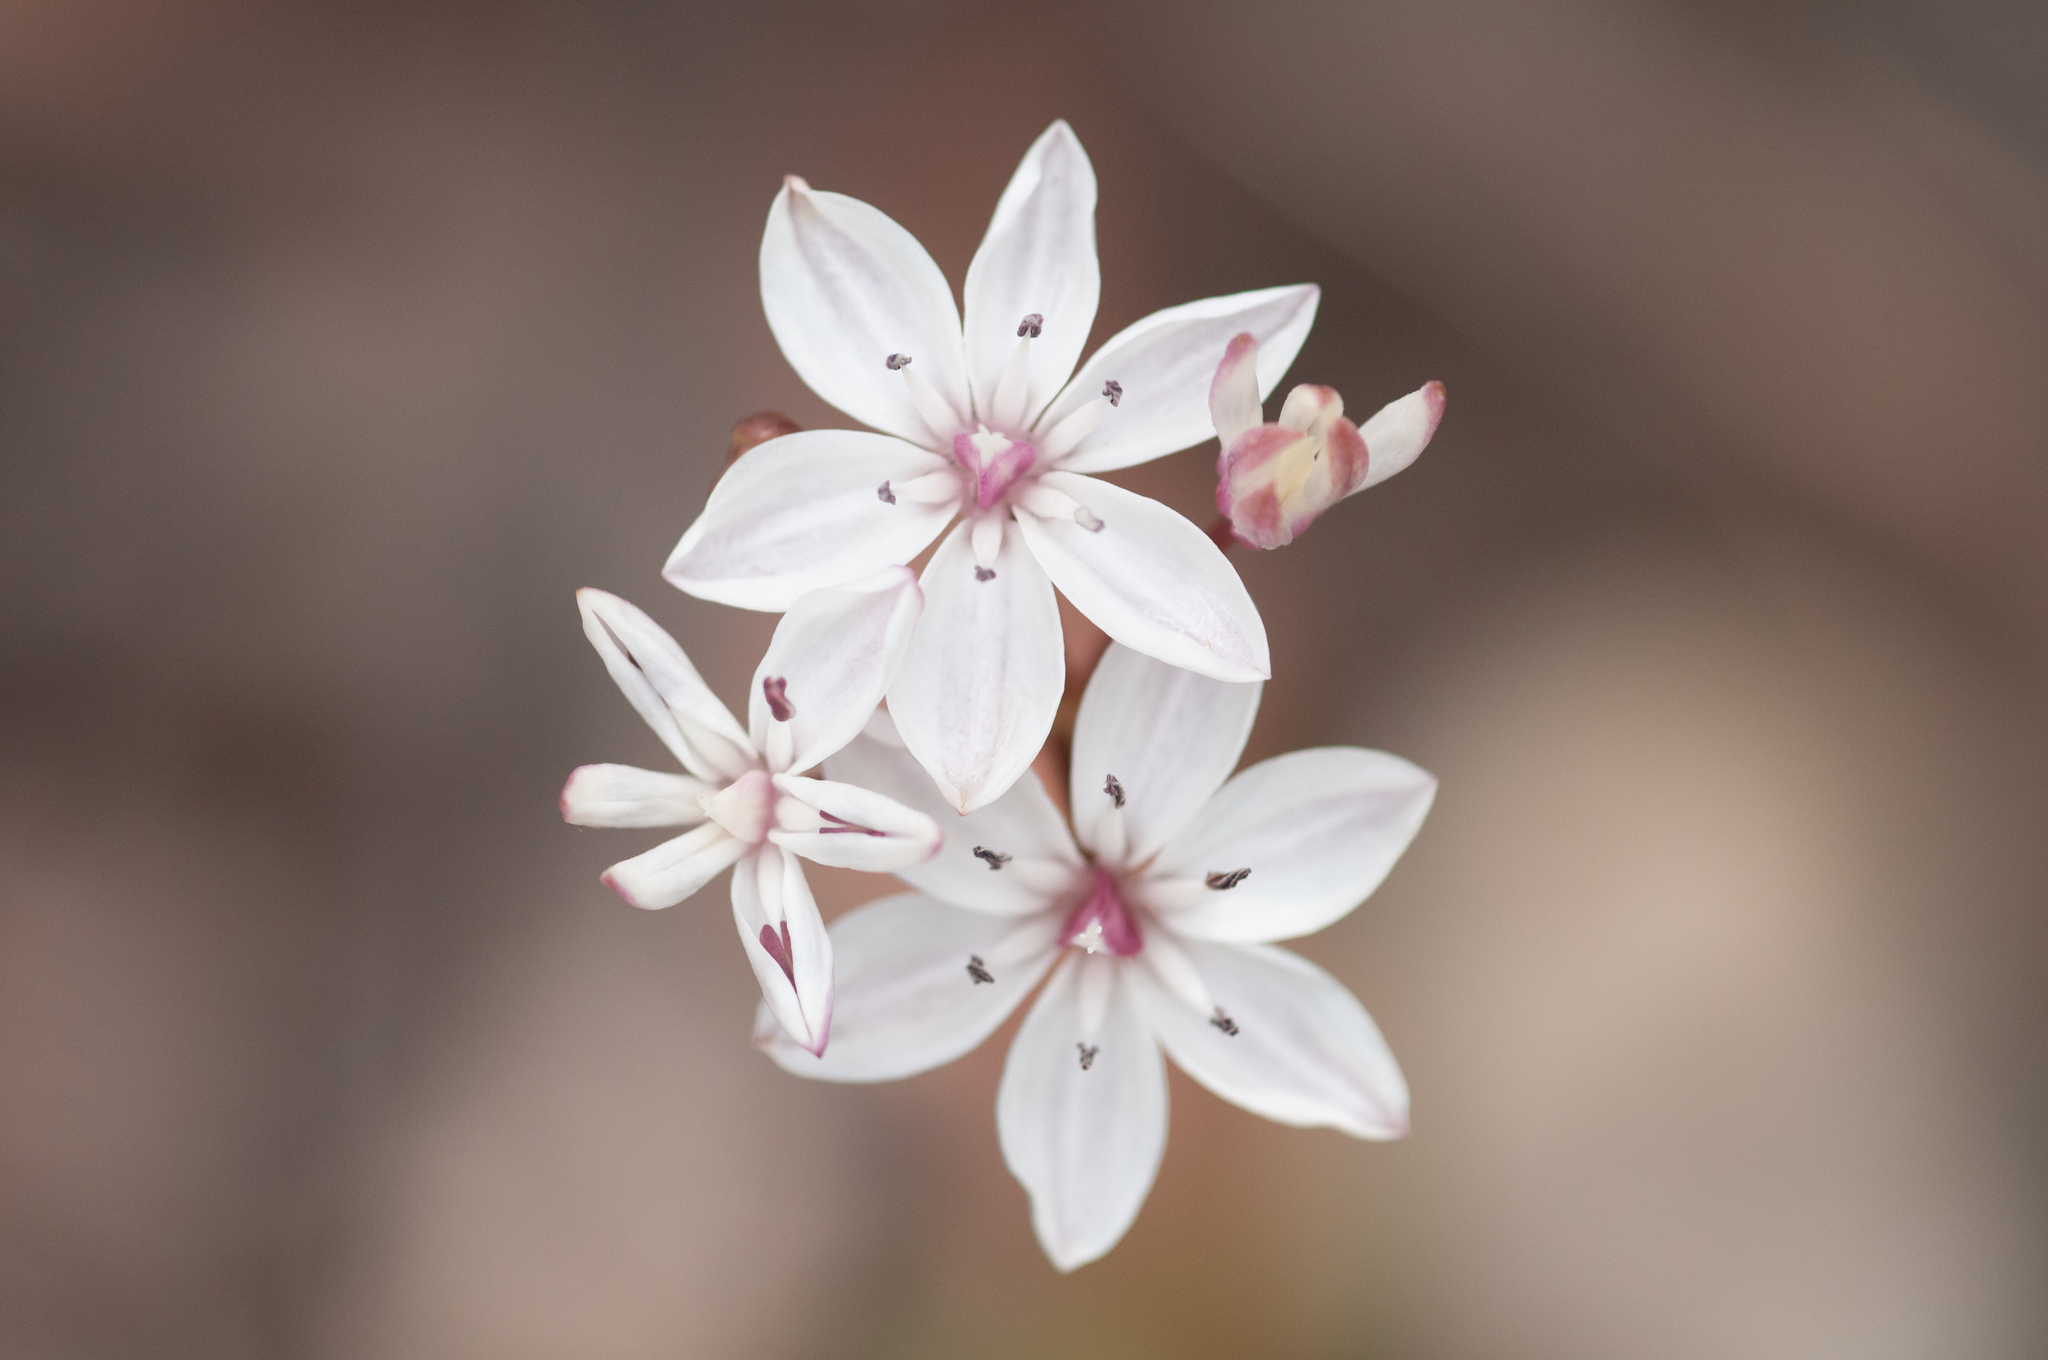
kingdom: Plantae
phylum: Tracheophyta
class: Liliopsida
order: Liliales
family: Colchicaceae
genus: Burchardia
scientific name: Burchardia umbellata
